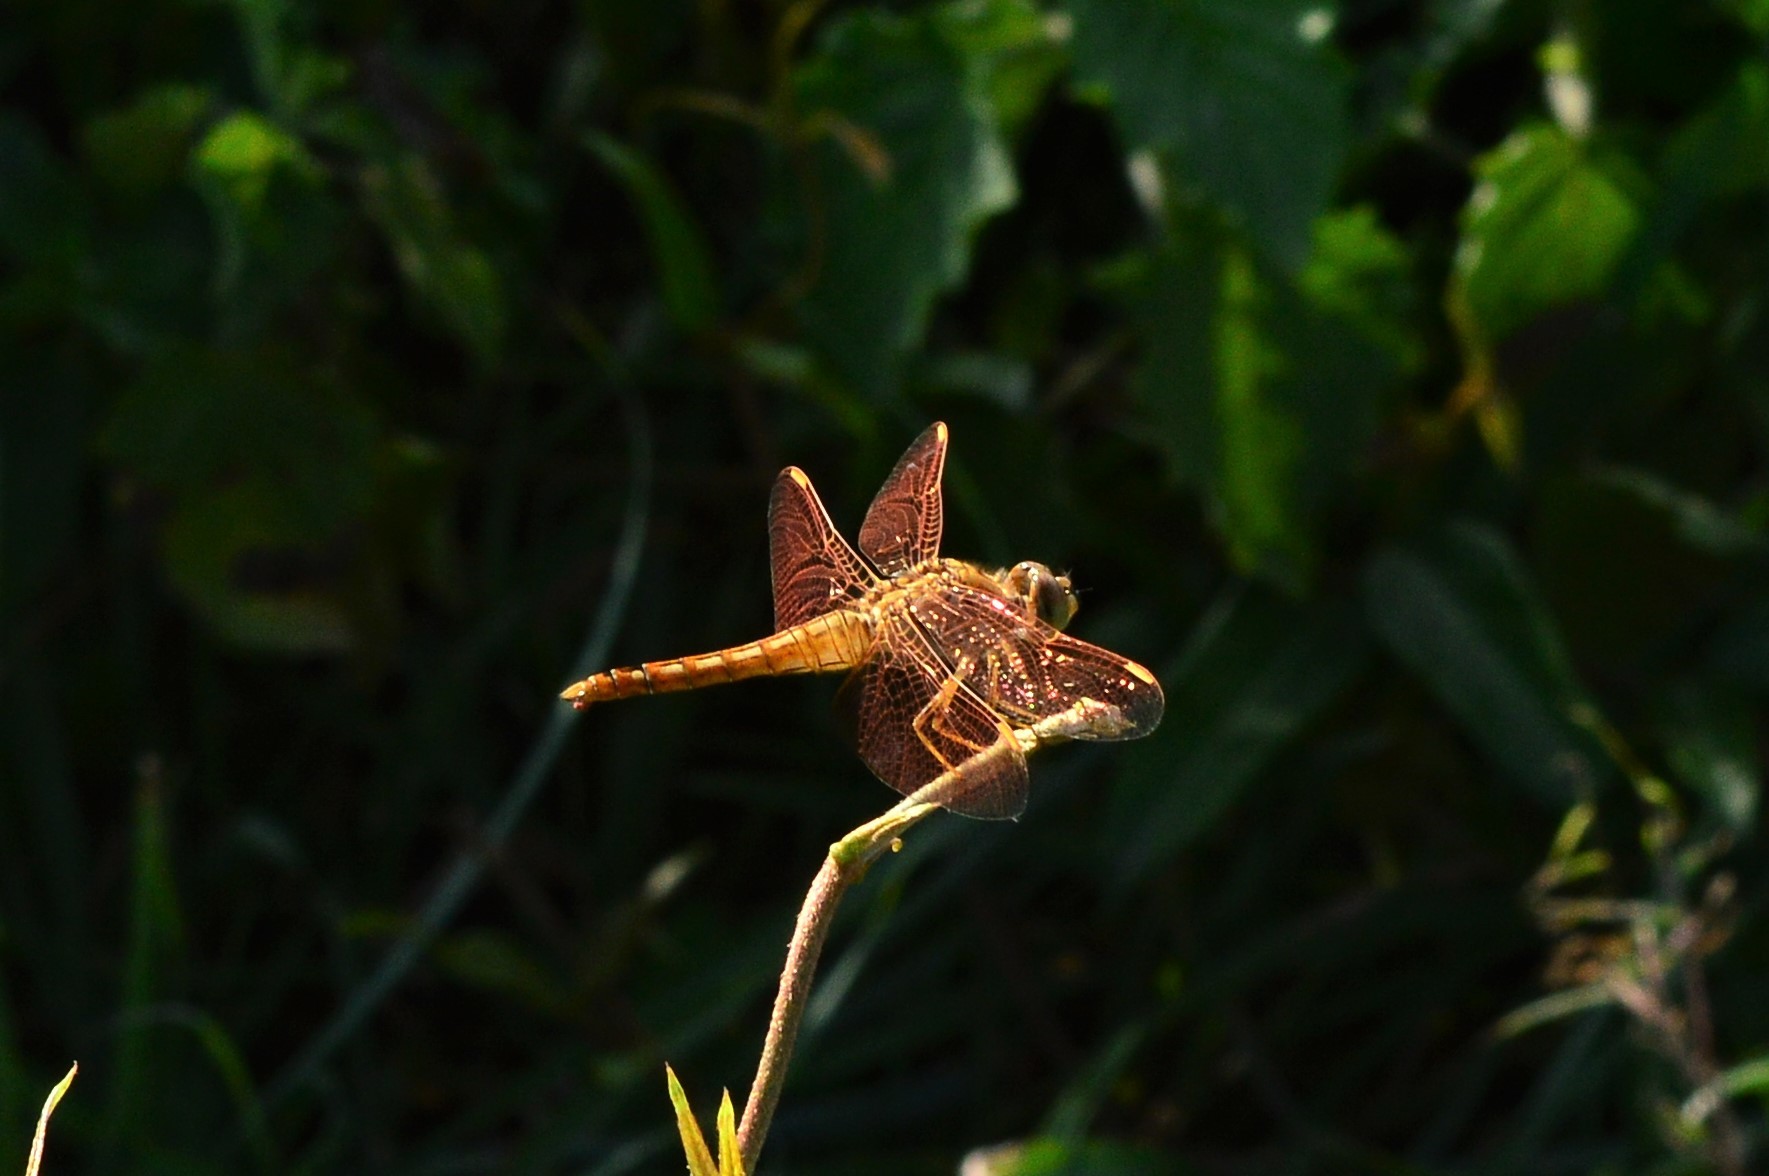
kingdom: Animalia
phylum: Arthropoda
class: Insecta
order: Odonata
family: Libellulidae
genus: Brachythemis
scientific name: Brachythemis contaminata
